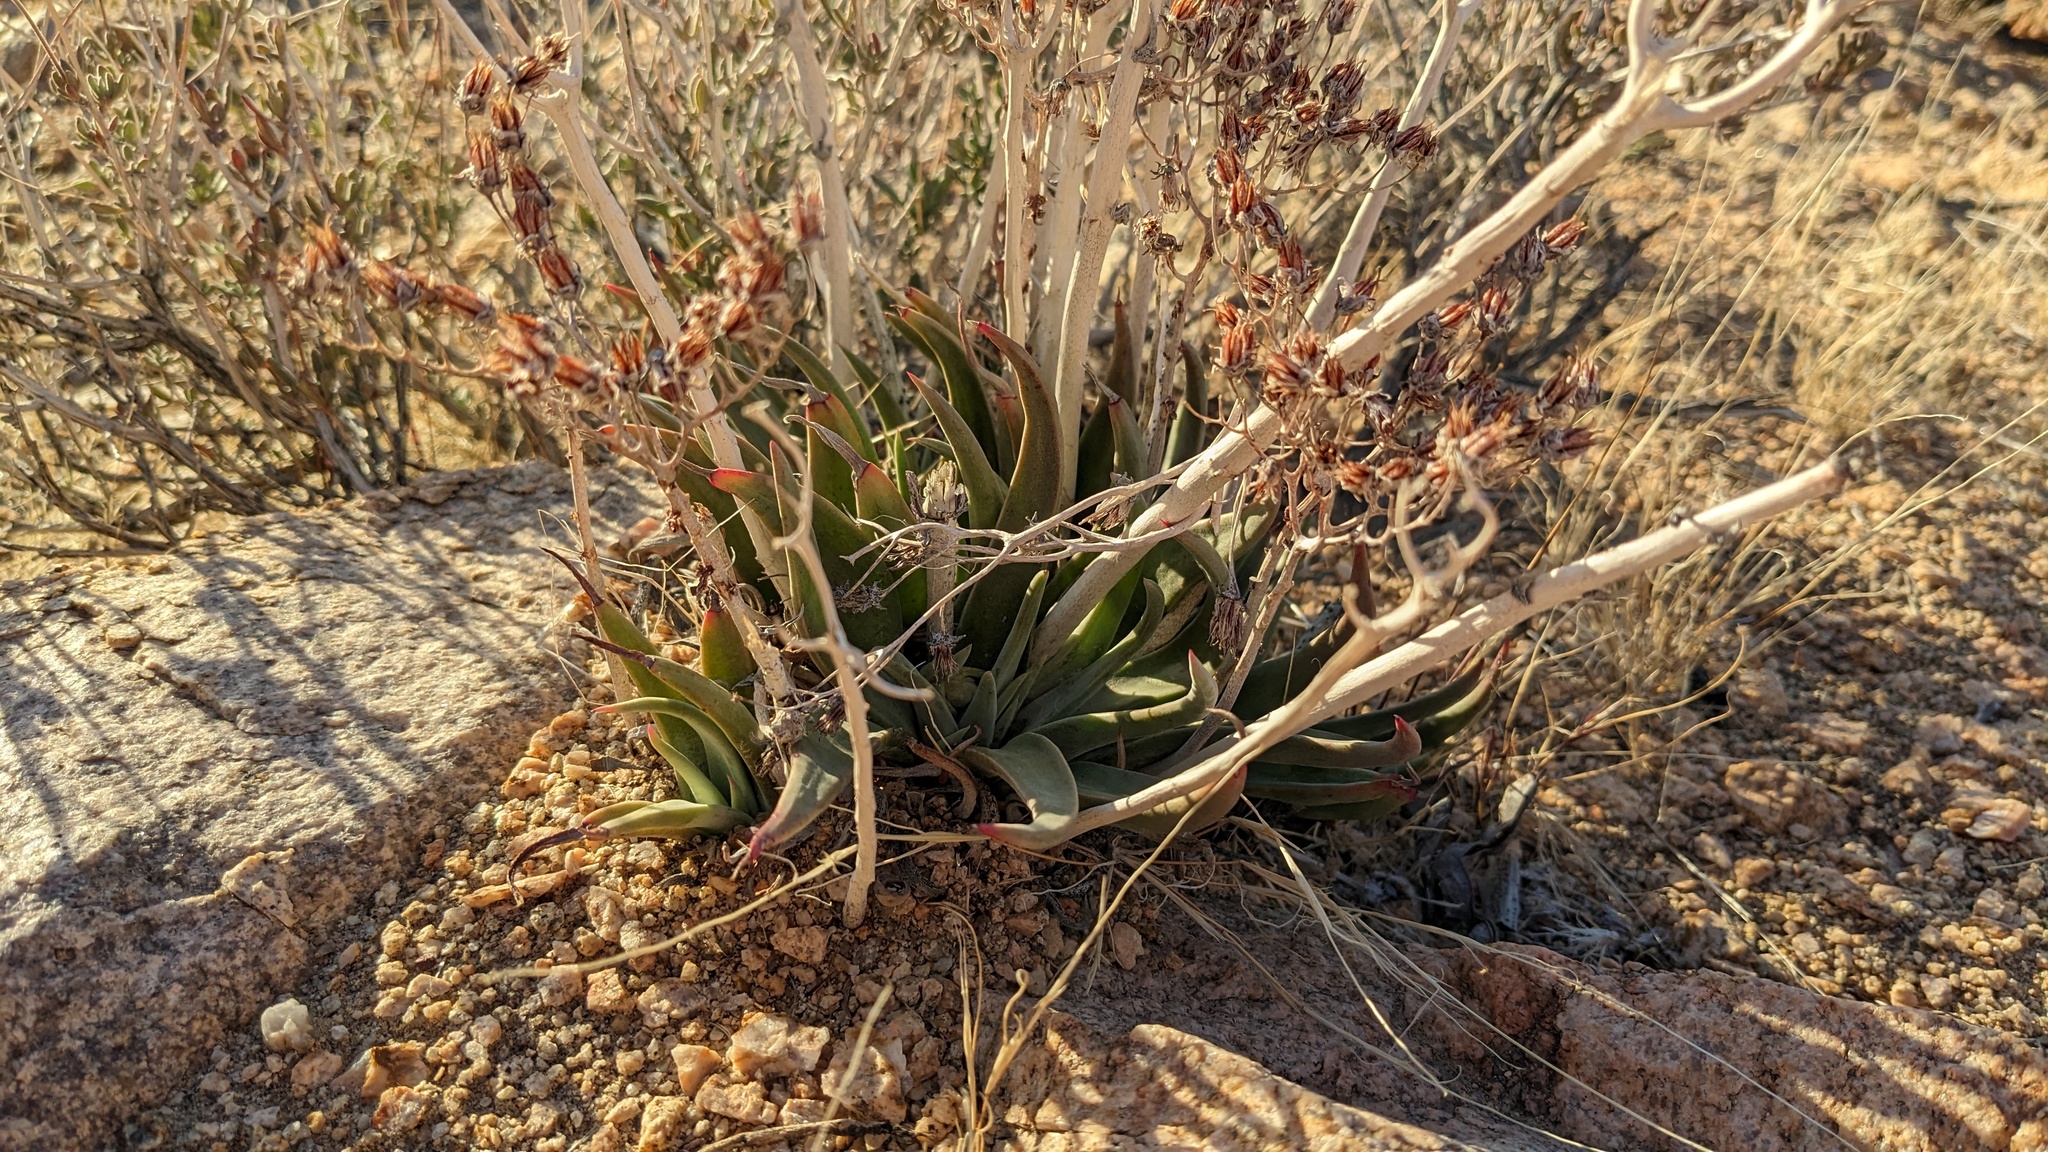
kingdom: Plantae
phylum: Tracheophyta
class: Magnoliopsida
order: Saxifragales
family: Crassulaceae
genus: Dudleya
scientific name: Dudleya saxosa
